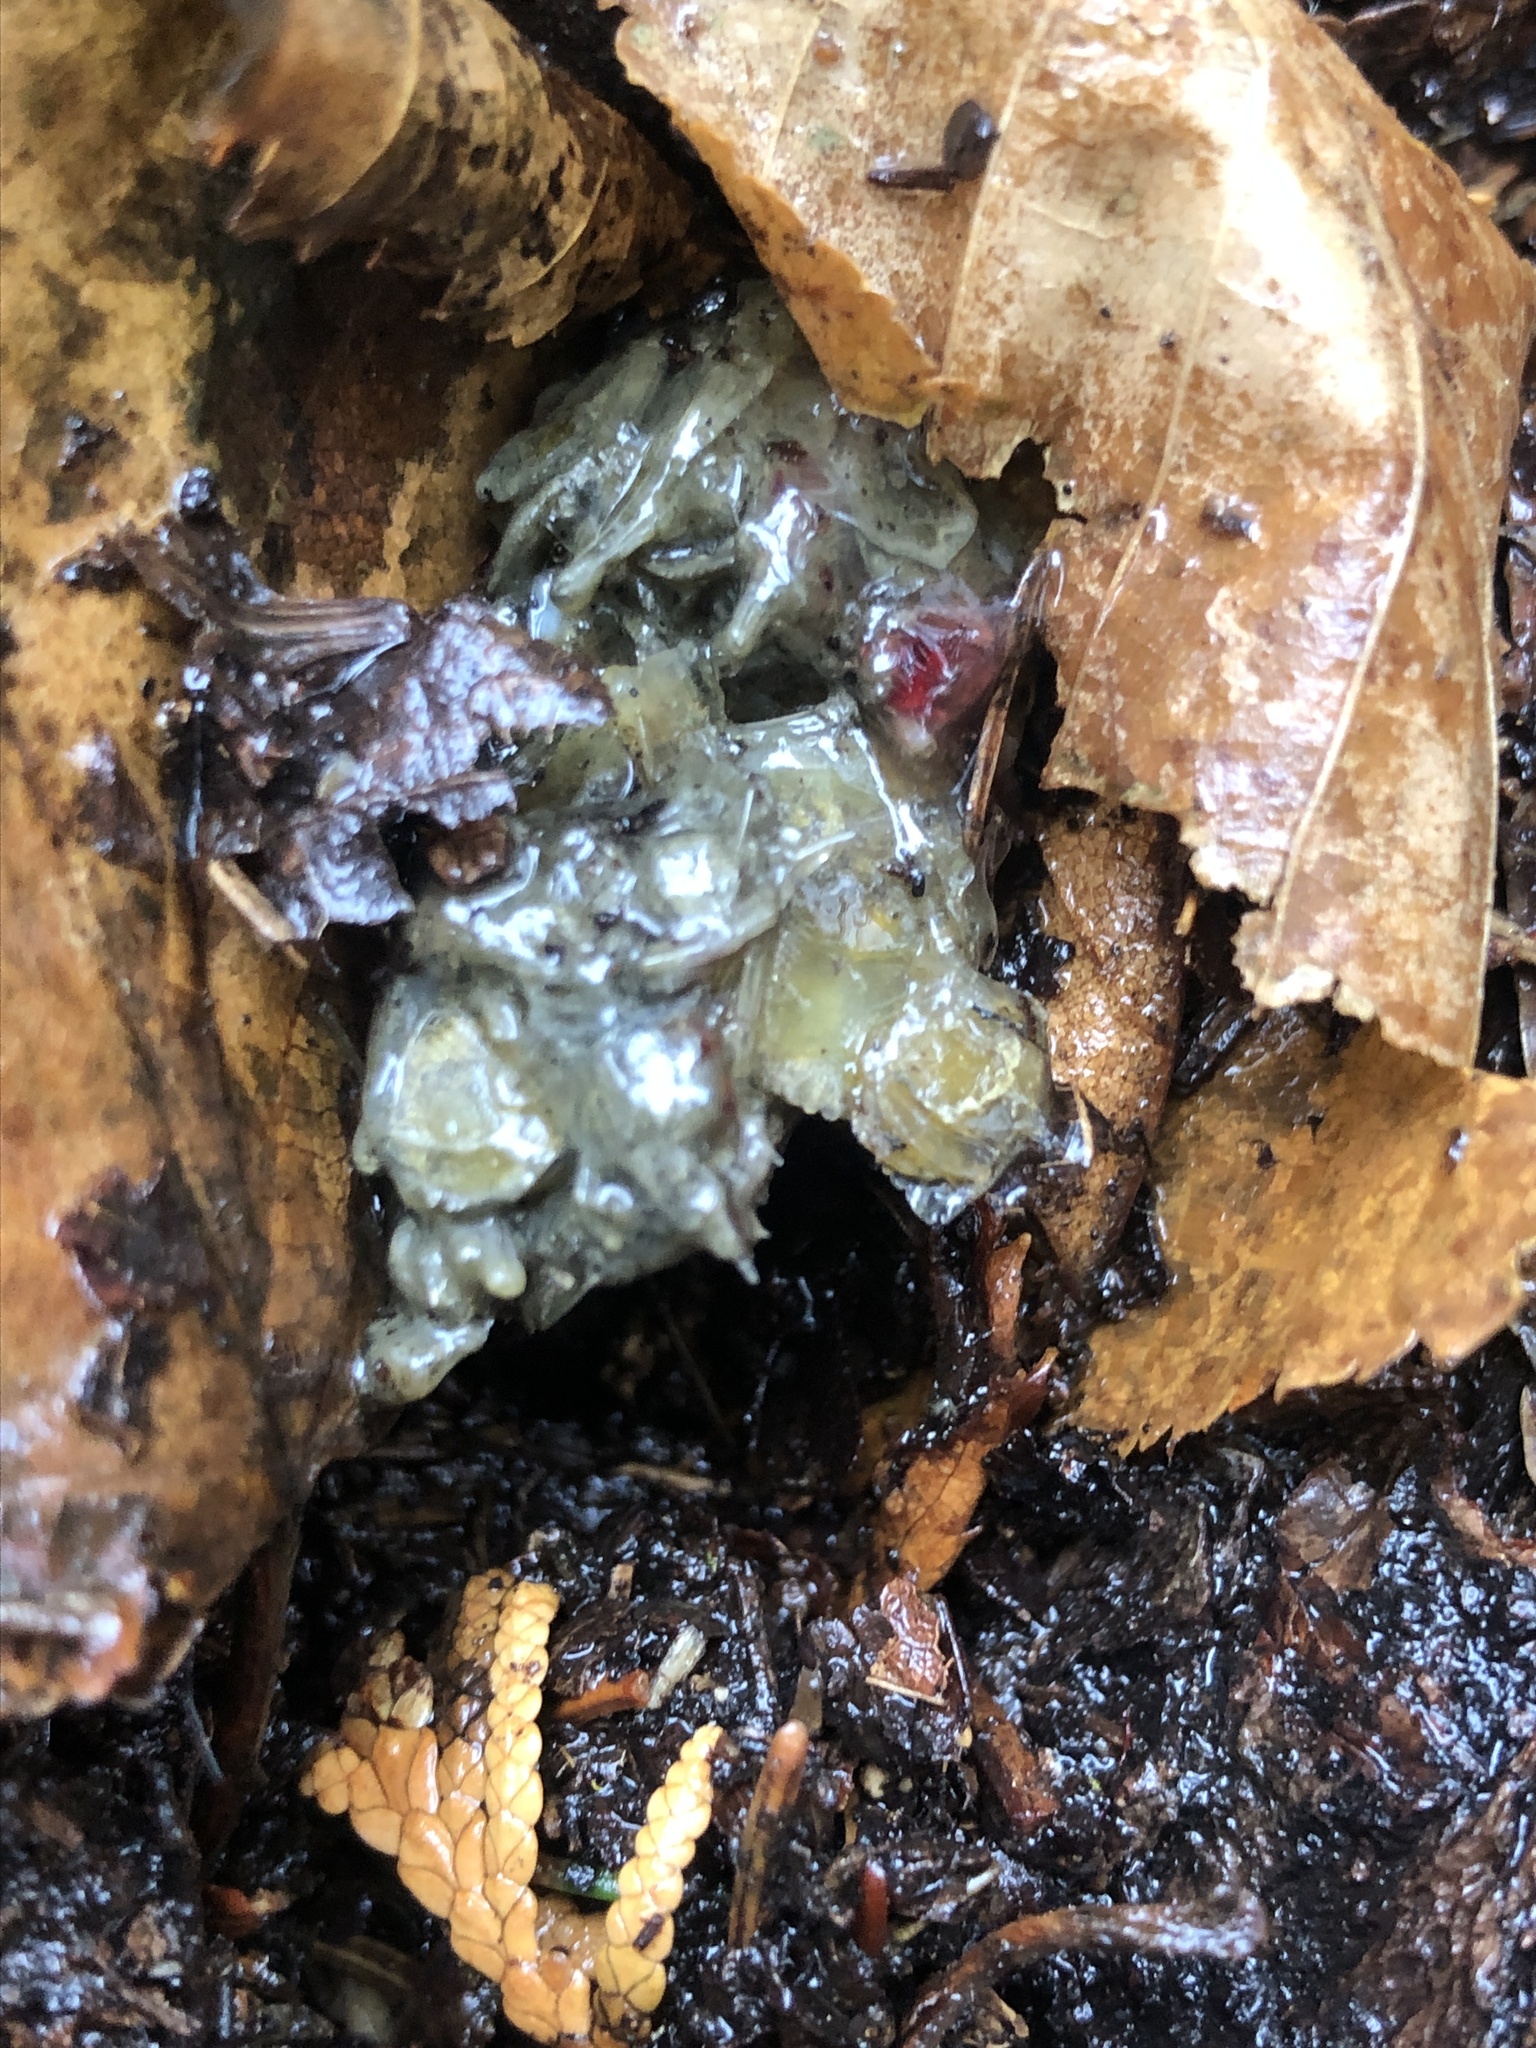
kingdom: Animalia
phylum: Chordata
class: Mammalia
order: Carnivora
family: Mustelidae
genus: Lontra
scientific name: Lontra canadensis
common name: North american river otter
